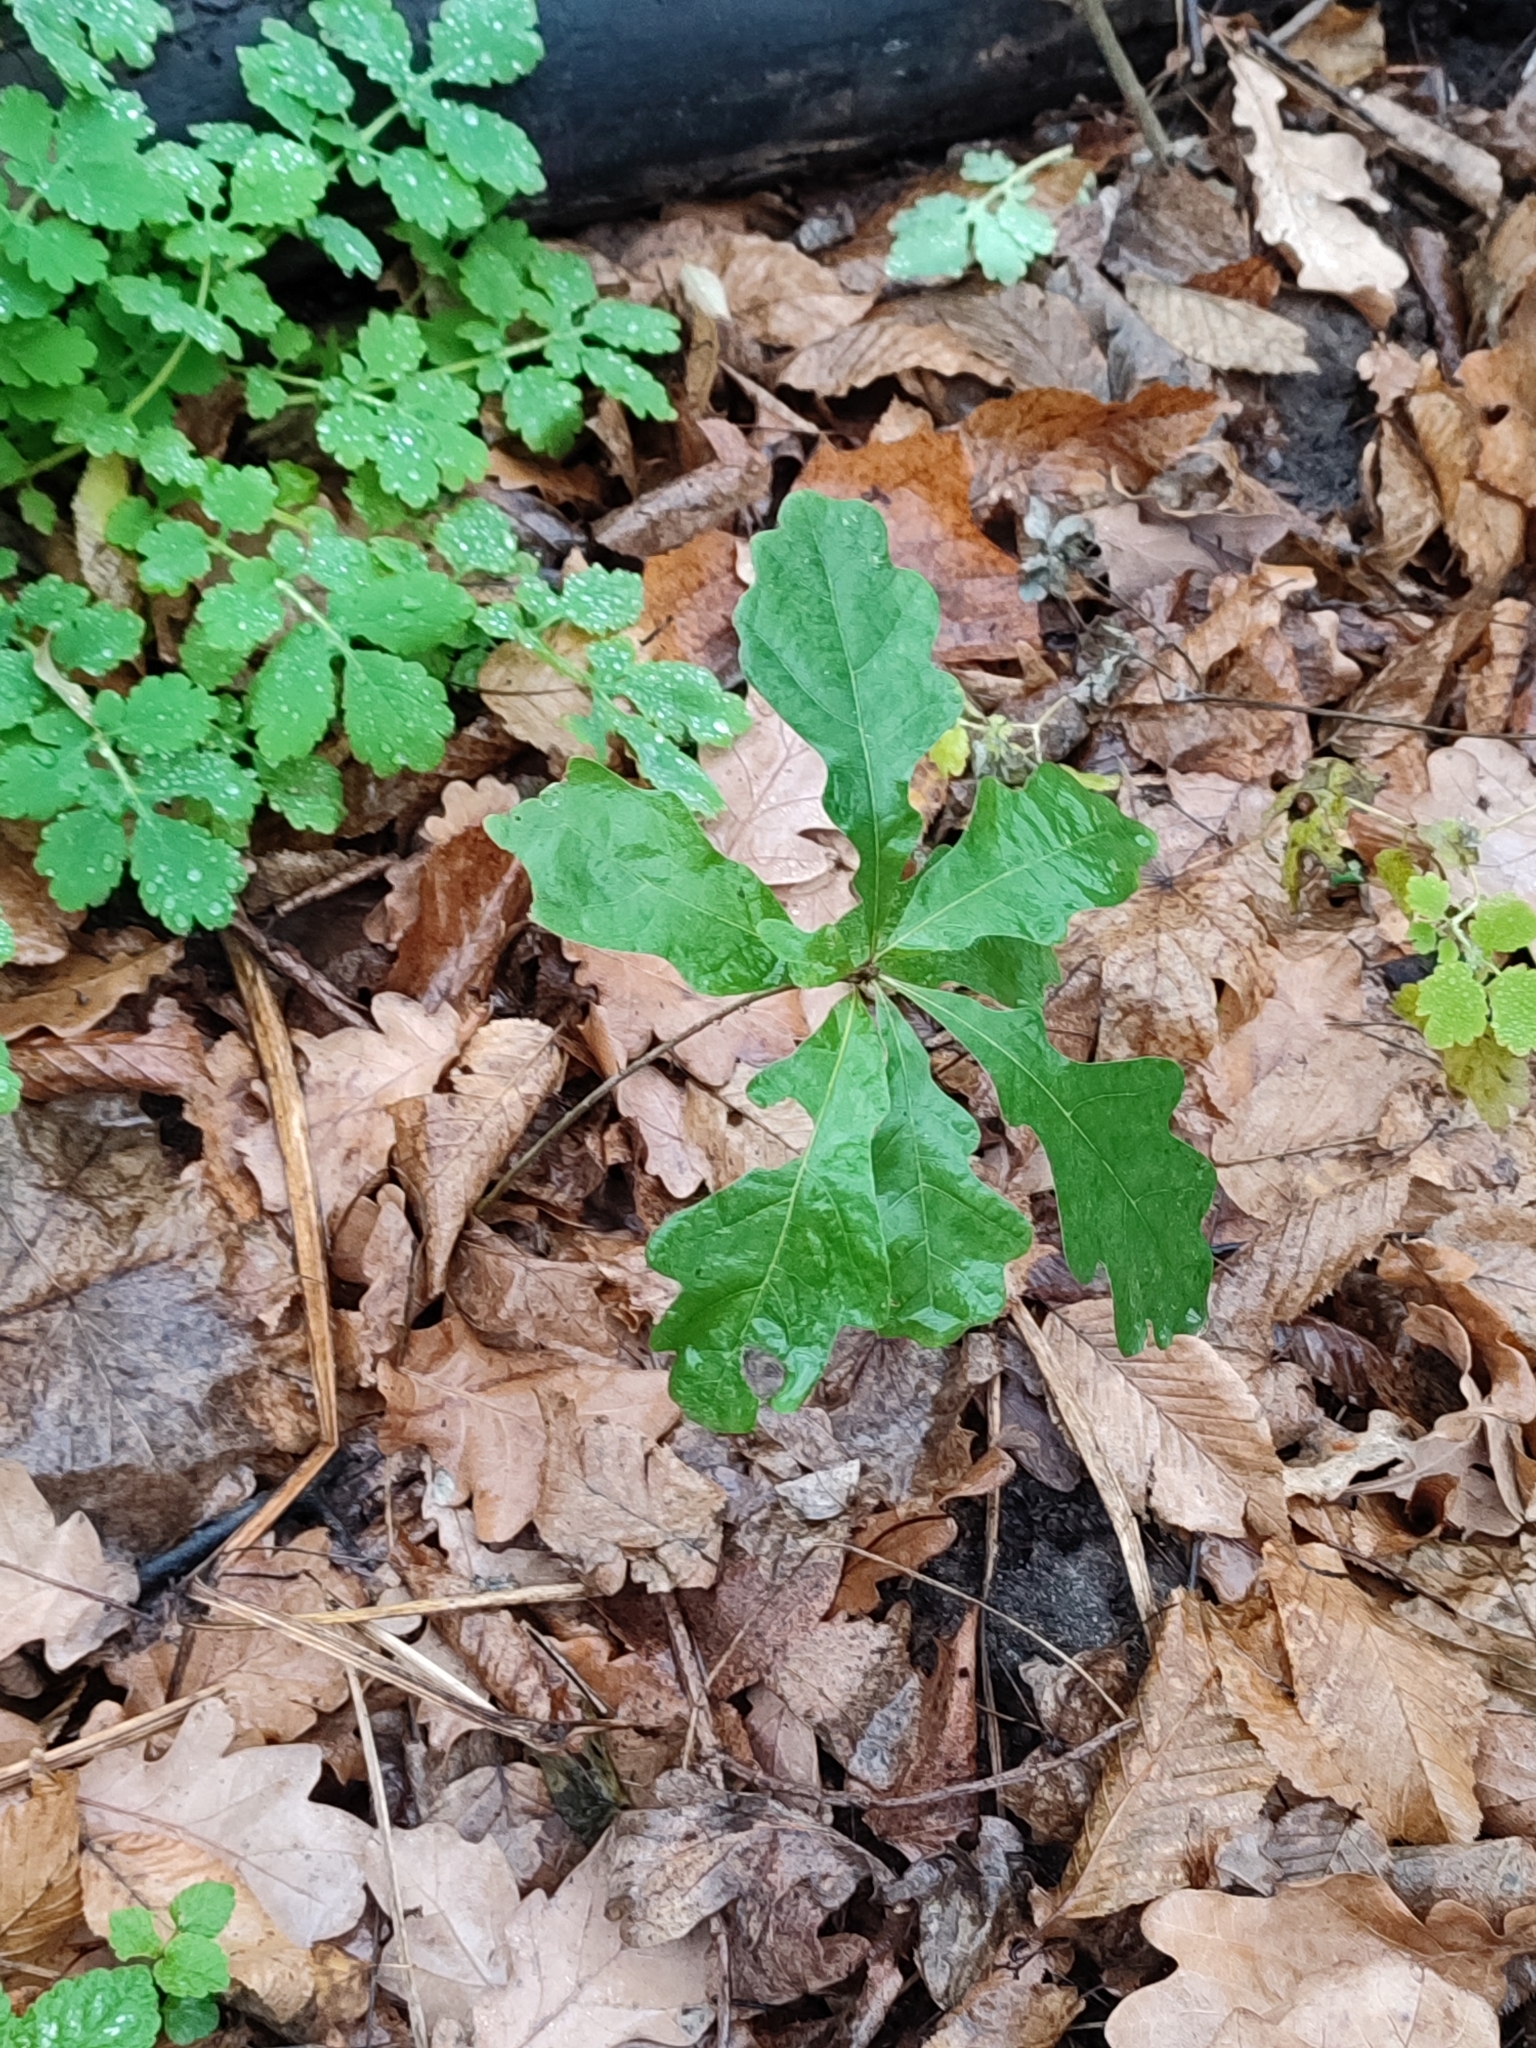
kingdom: Plantae
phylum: Tracheophyta
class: Magnoliopsida
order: Fagales
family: Fagaceae
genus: Quercus
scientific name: Quercus robur
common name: Pedunculate oak
